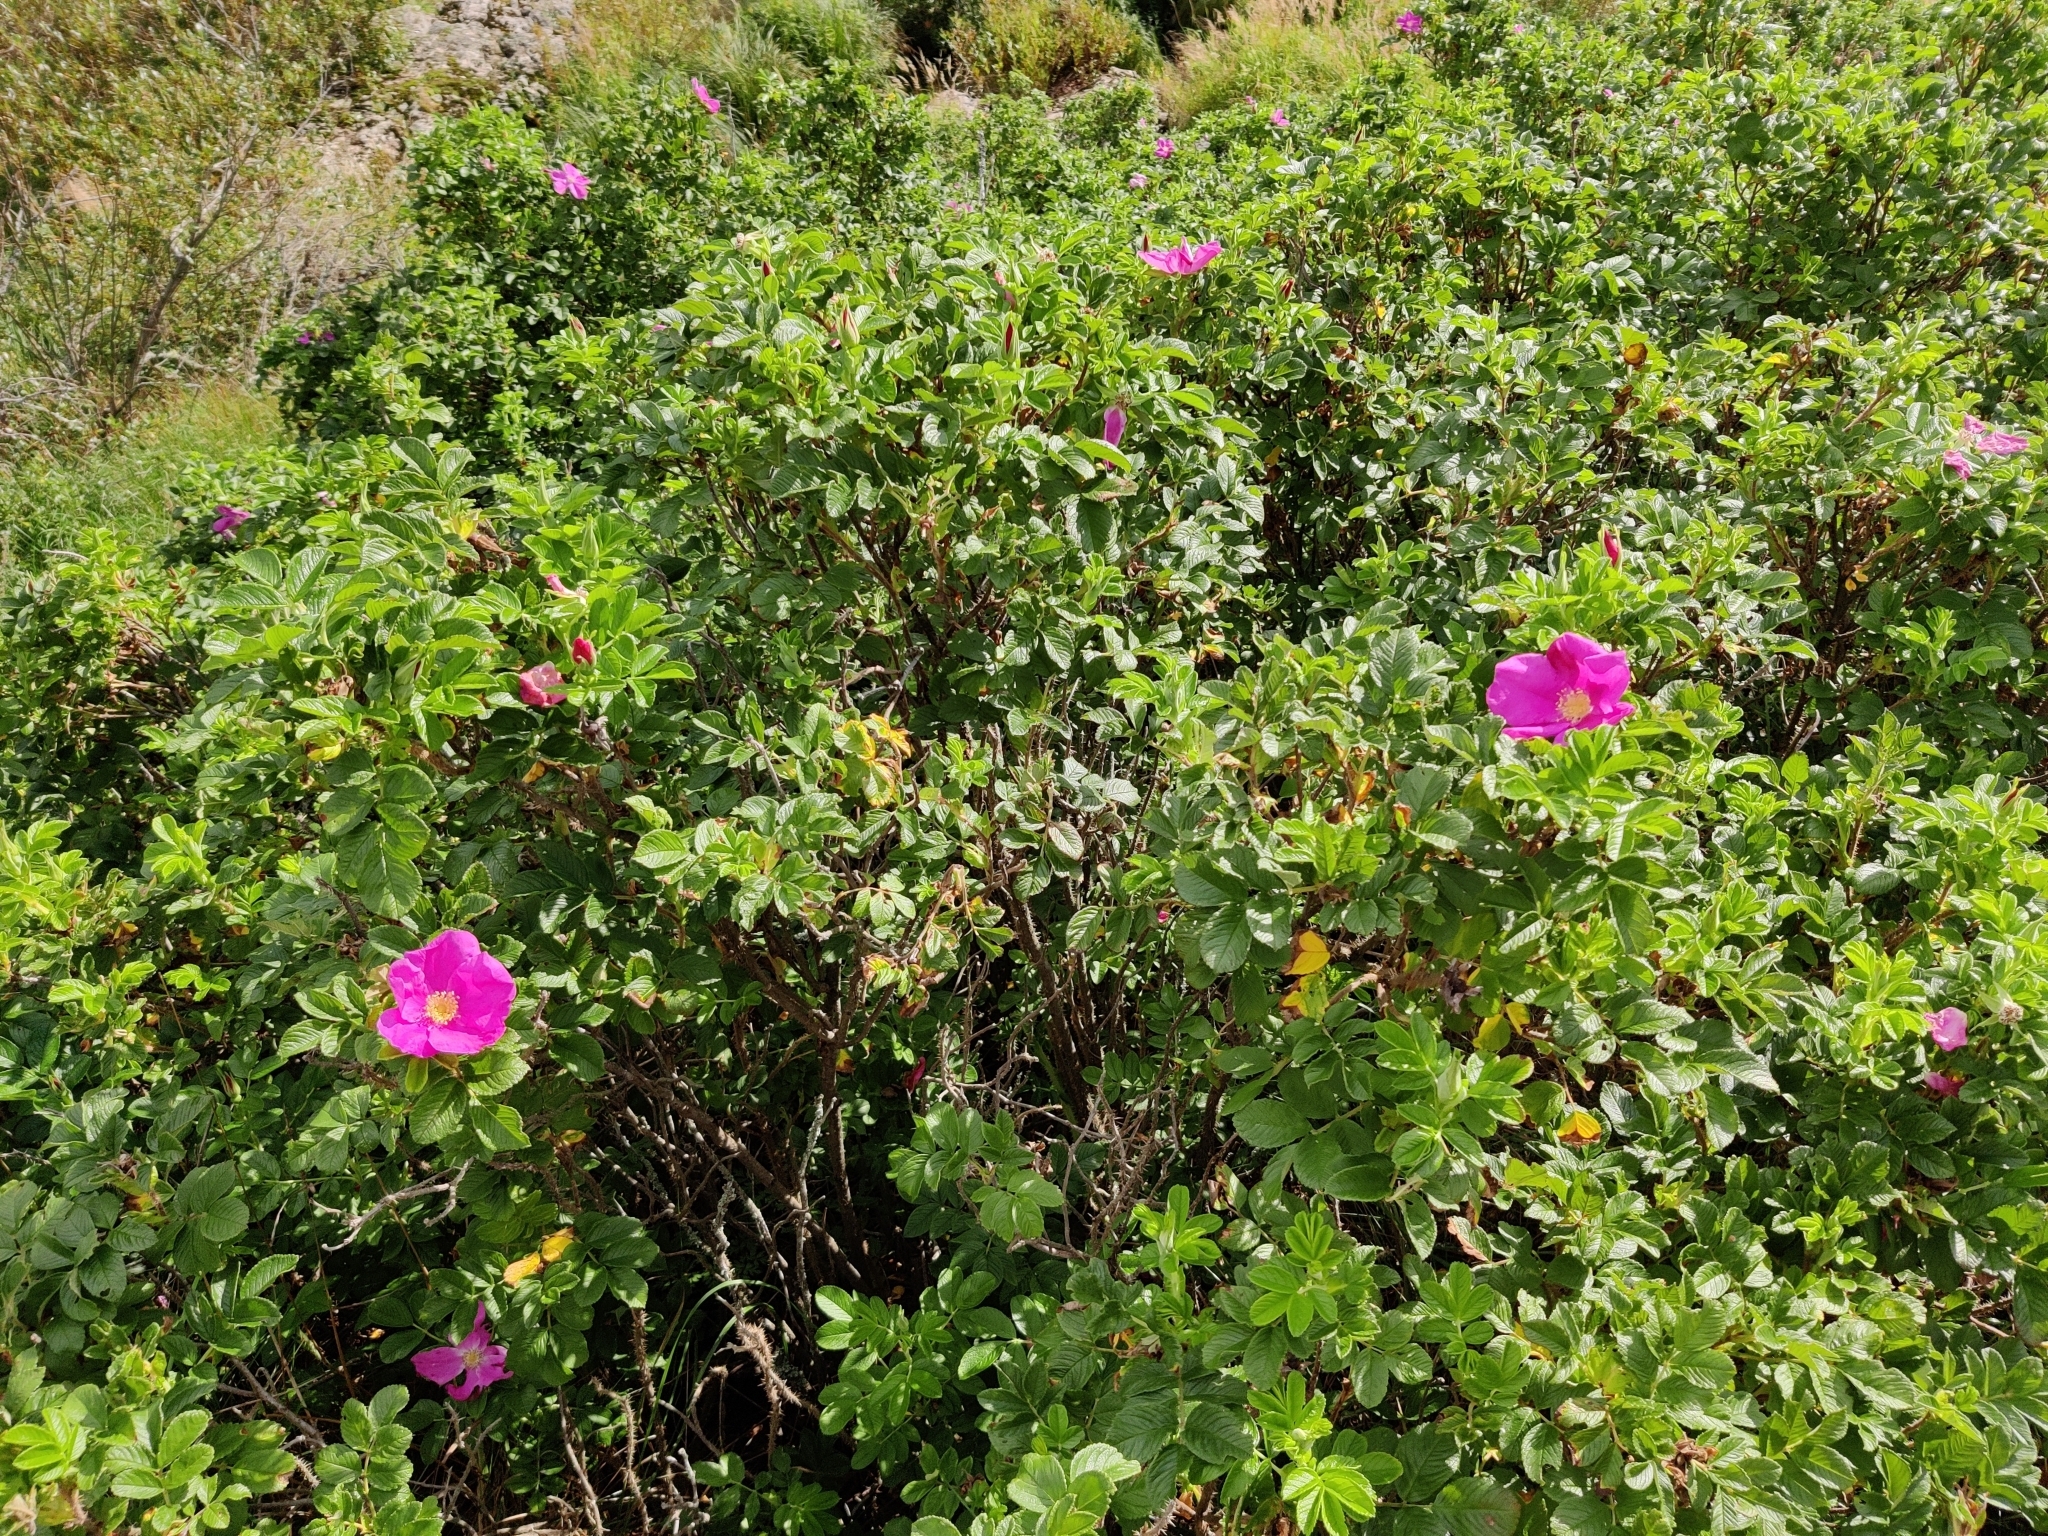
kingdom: Plantae
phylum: Tracheophyta
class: Magnoliopsida
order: Rosales
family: Rosaceae
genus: Rosa
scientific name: Rosa rugosa
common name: Japanese rose
